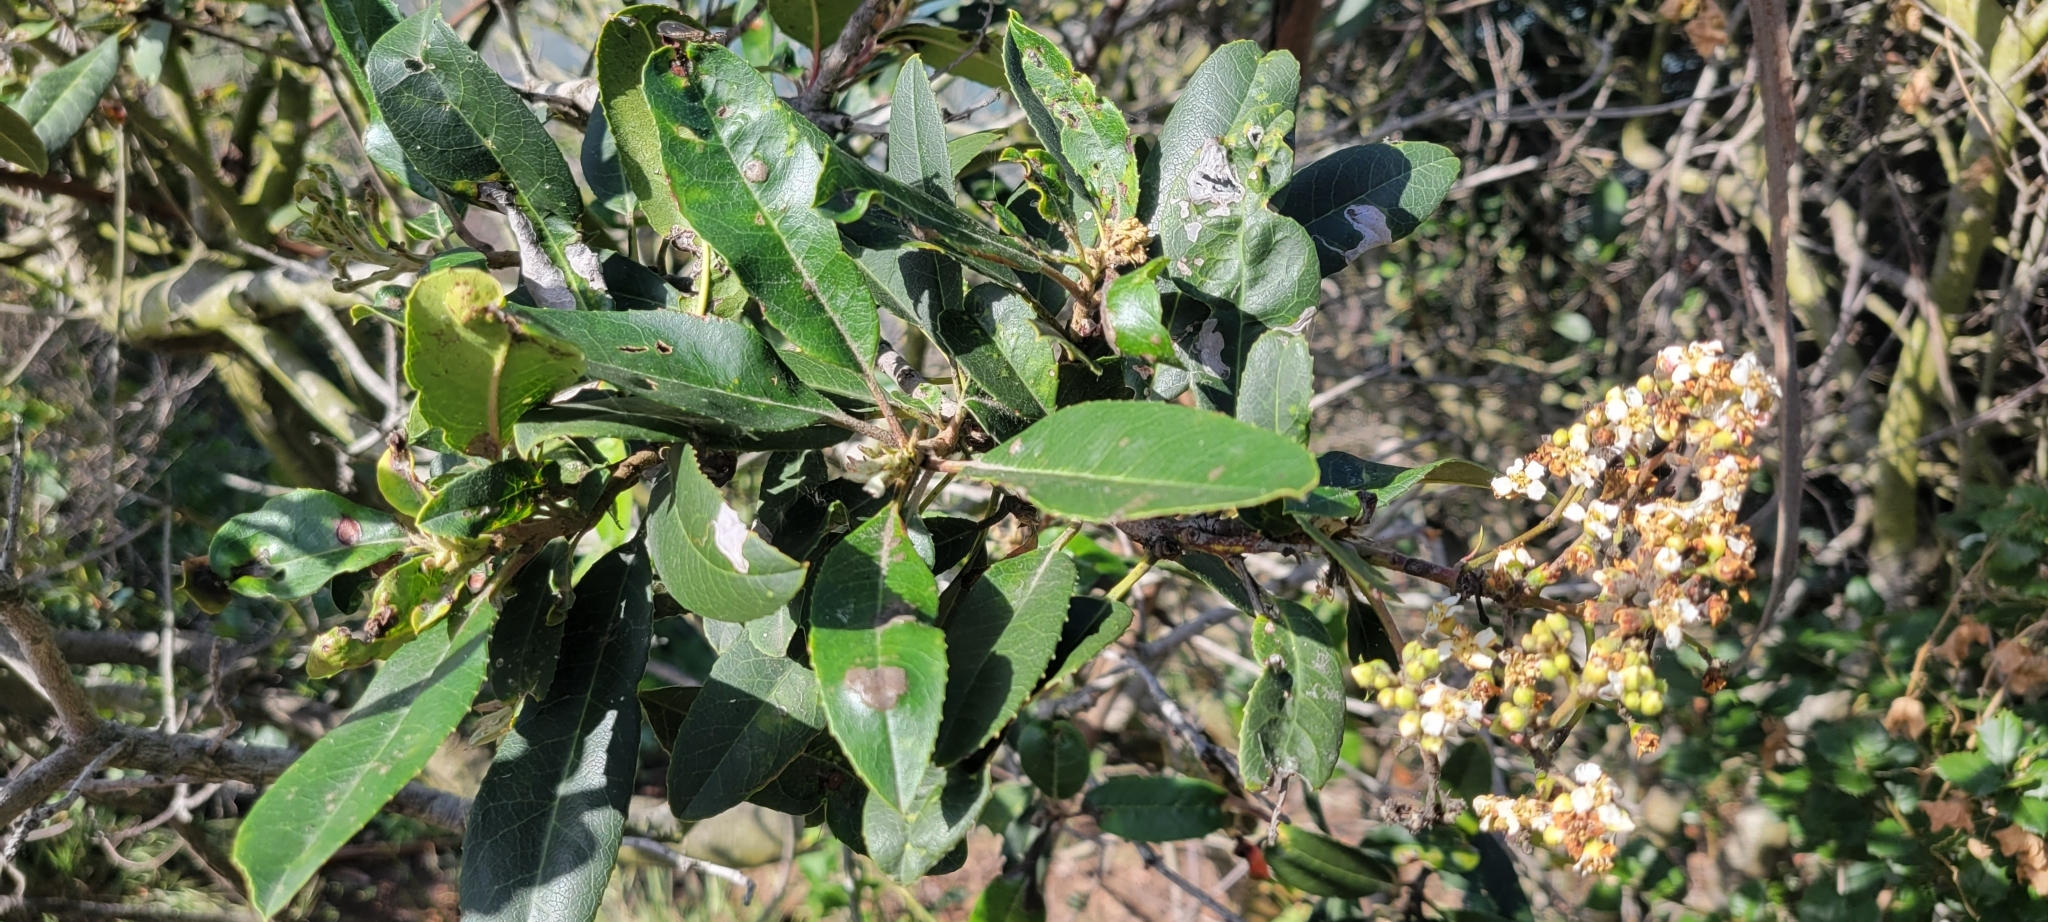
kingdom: Plantae
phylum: Tracheophyta
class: Magnoliopsida
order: Rosales
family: Rosaceae
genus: Heteromeles
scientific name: Heteromeles arbutifolia
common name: California-holly
